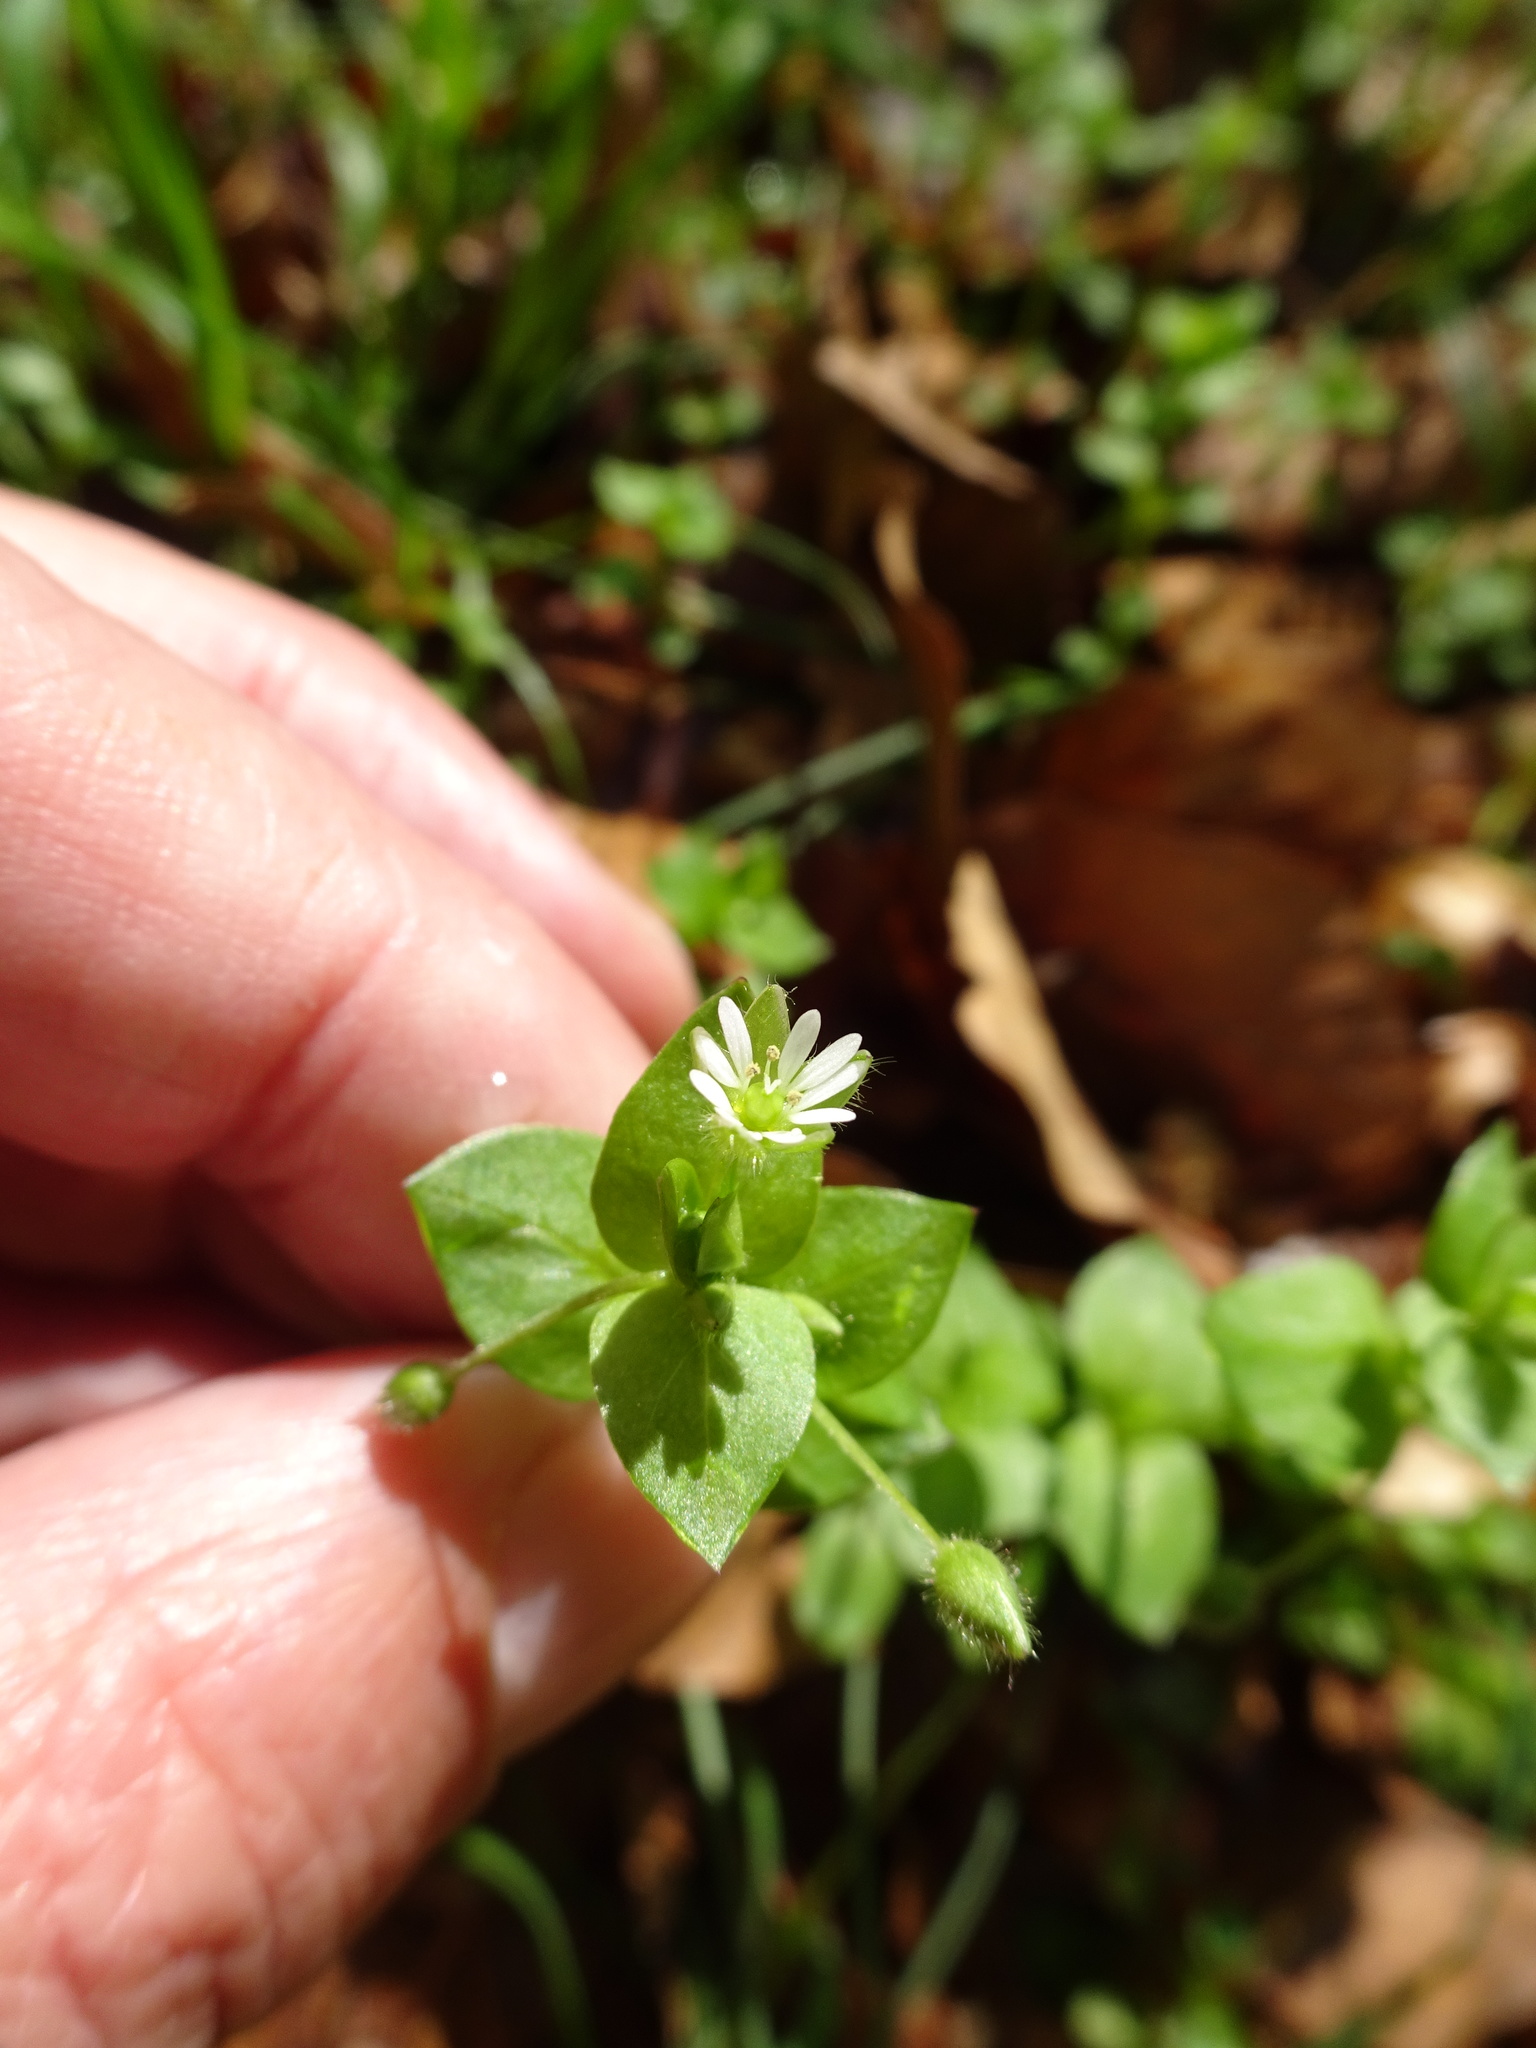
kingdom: Plantae
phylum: Tracheophyta
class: Magnoliopsida
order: Caryophyllales
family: Caryophyllaceae
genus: Stellaria
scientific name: Stellaria media
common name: Common chickweed
